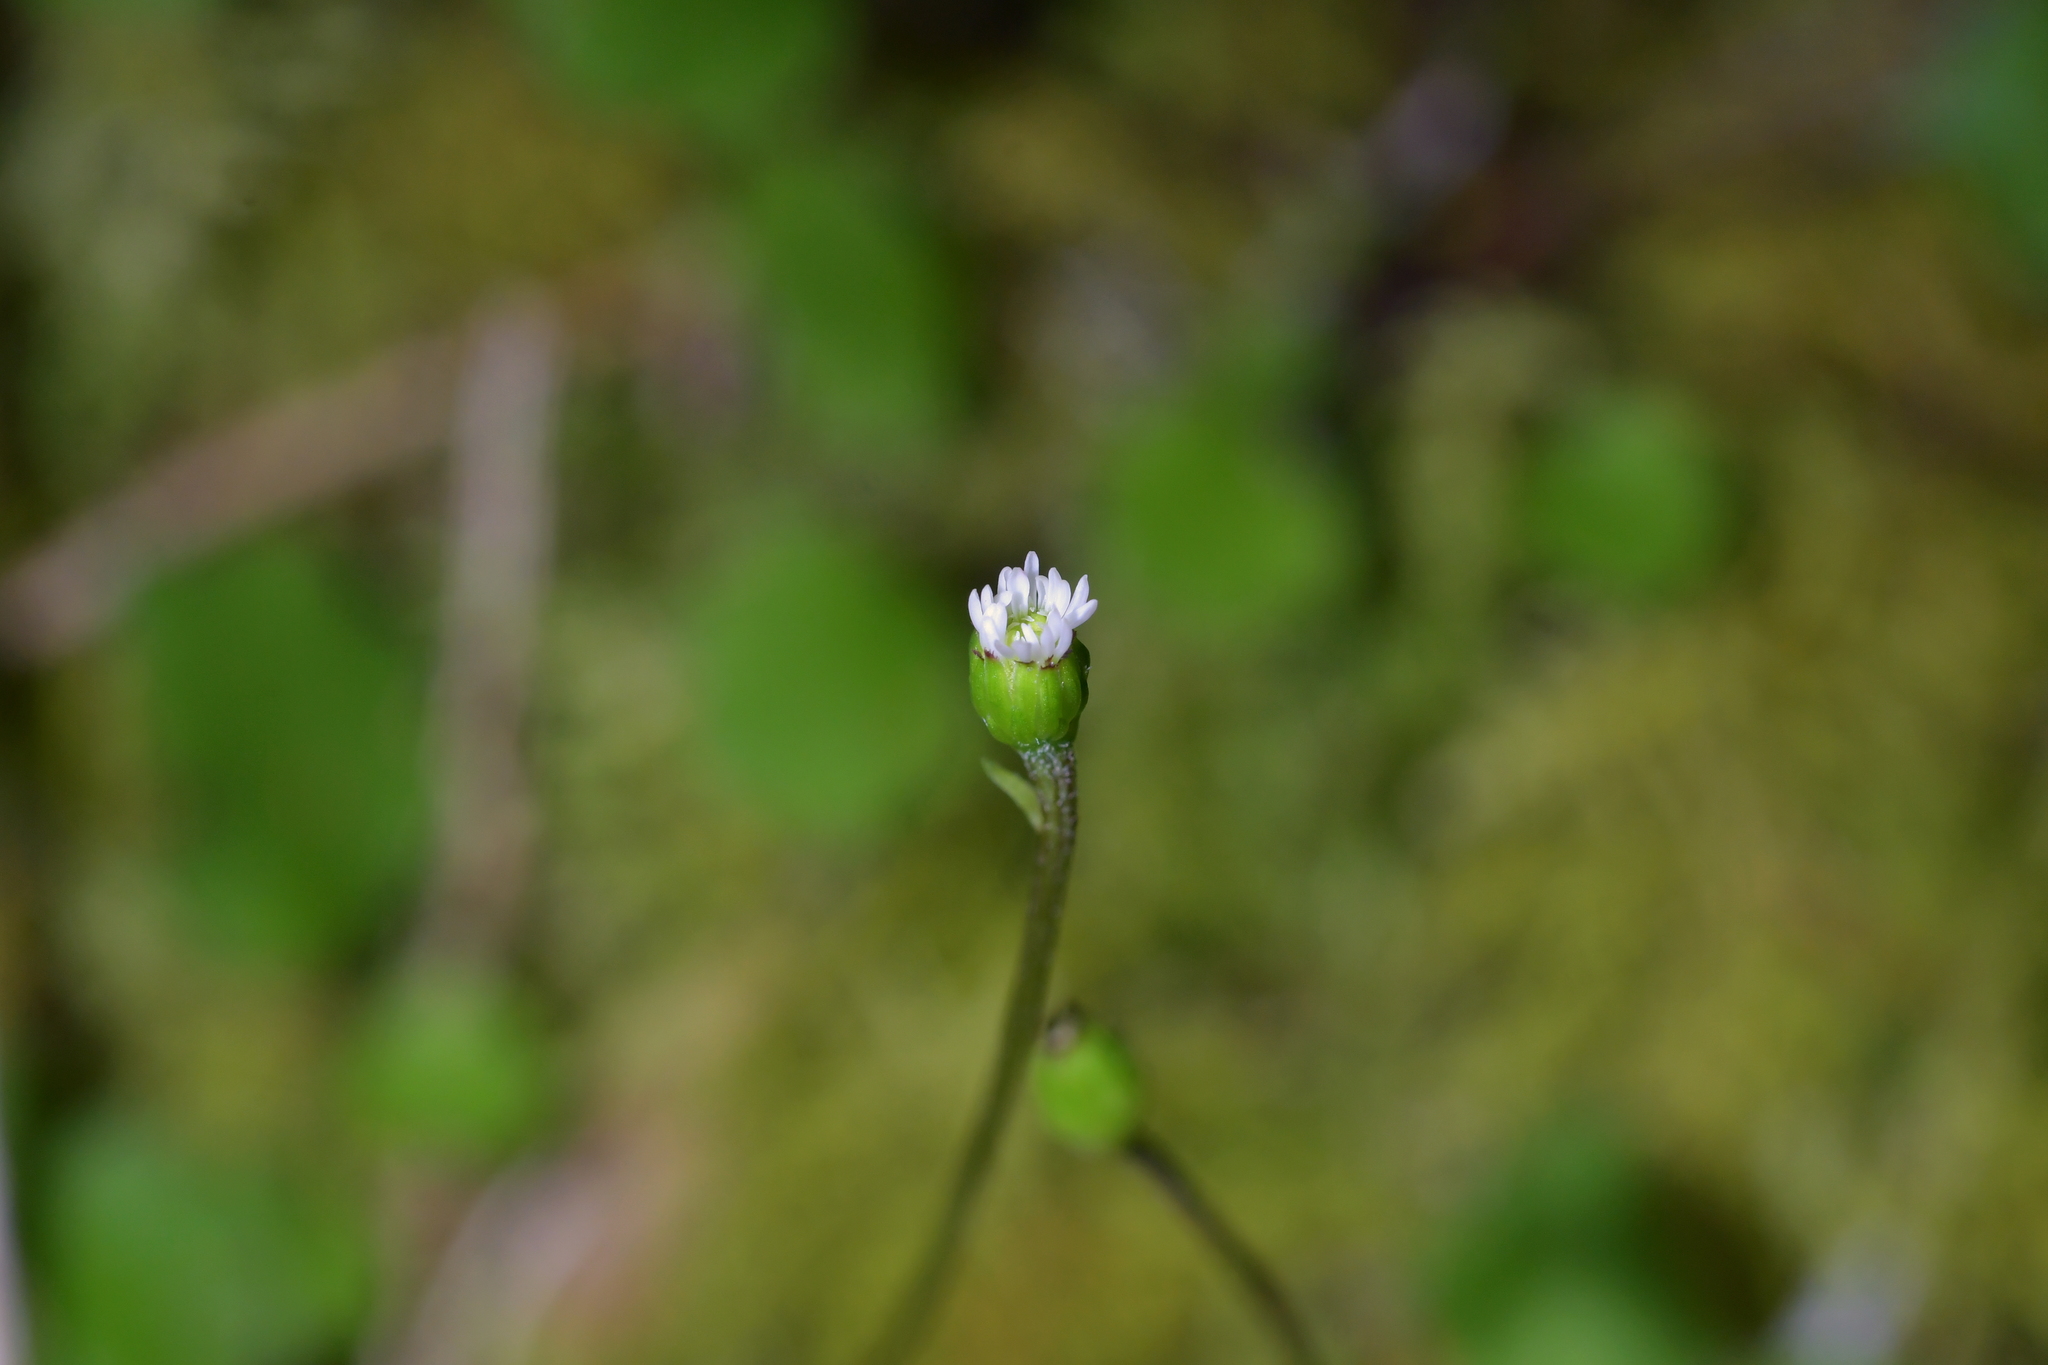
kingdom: Plantae
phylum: Tracheophyta
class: Magnoliopsida
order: Asterales
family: Asteraceae
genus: Lagenophora
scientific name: Lagenophora strangulata
